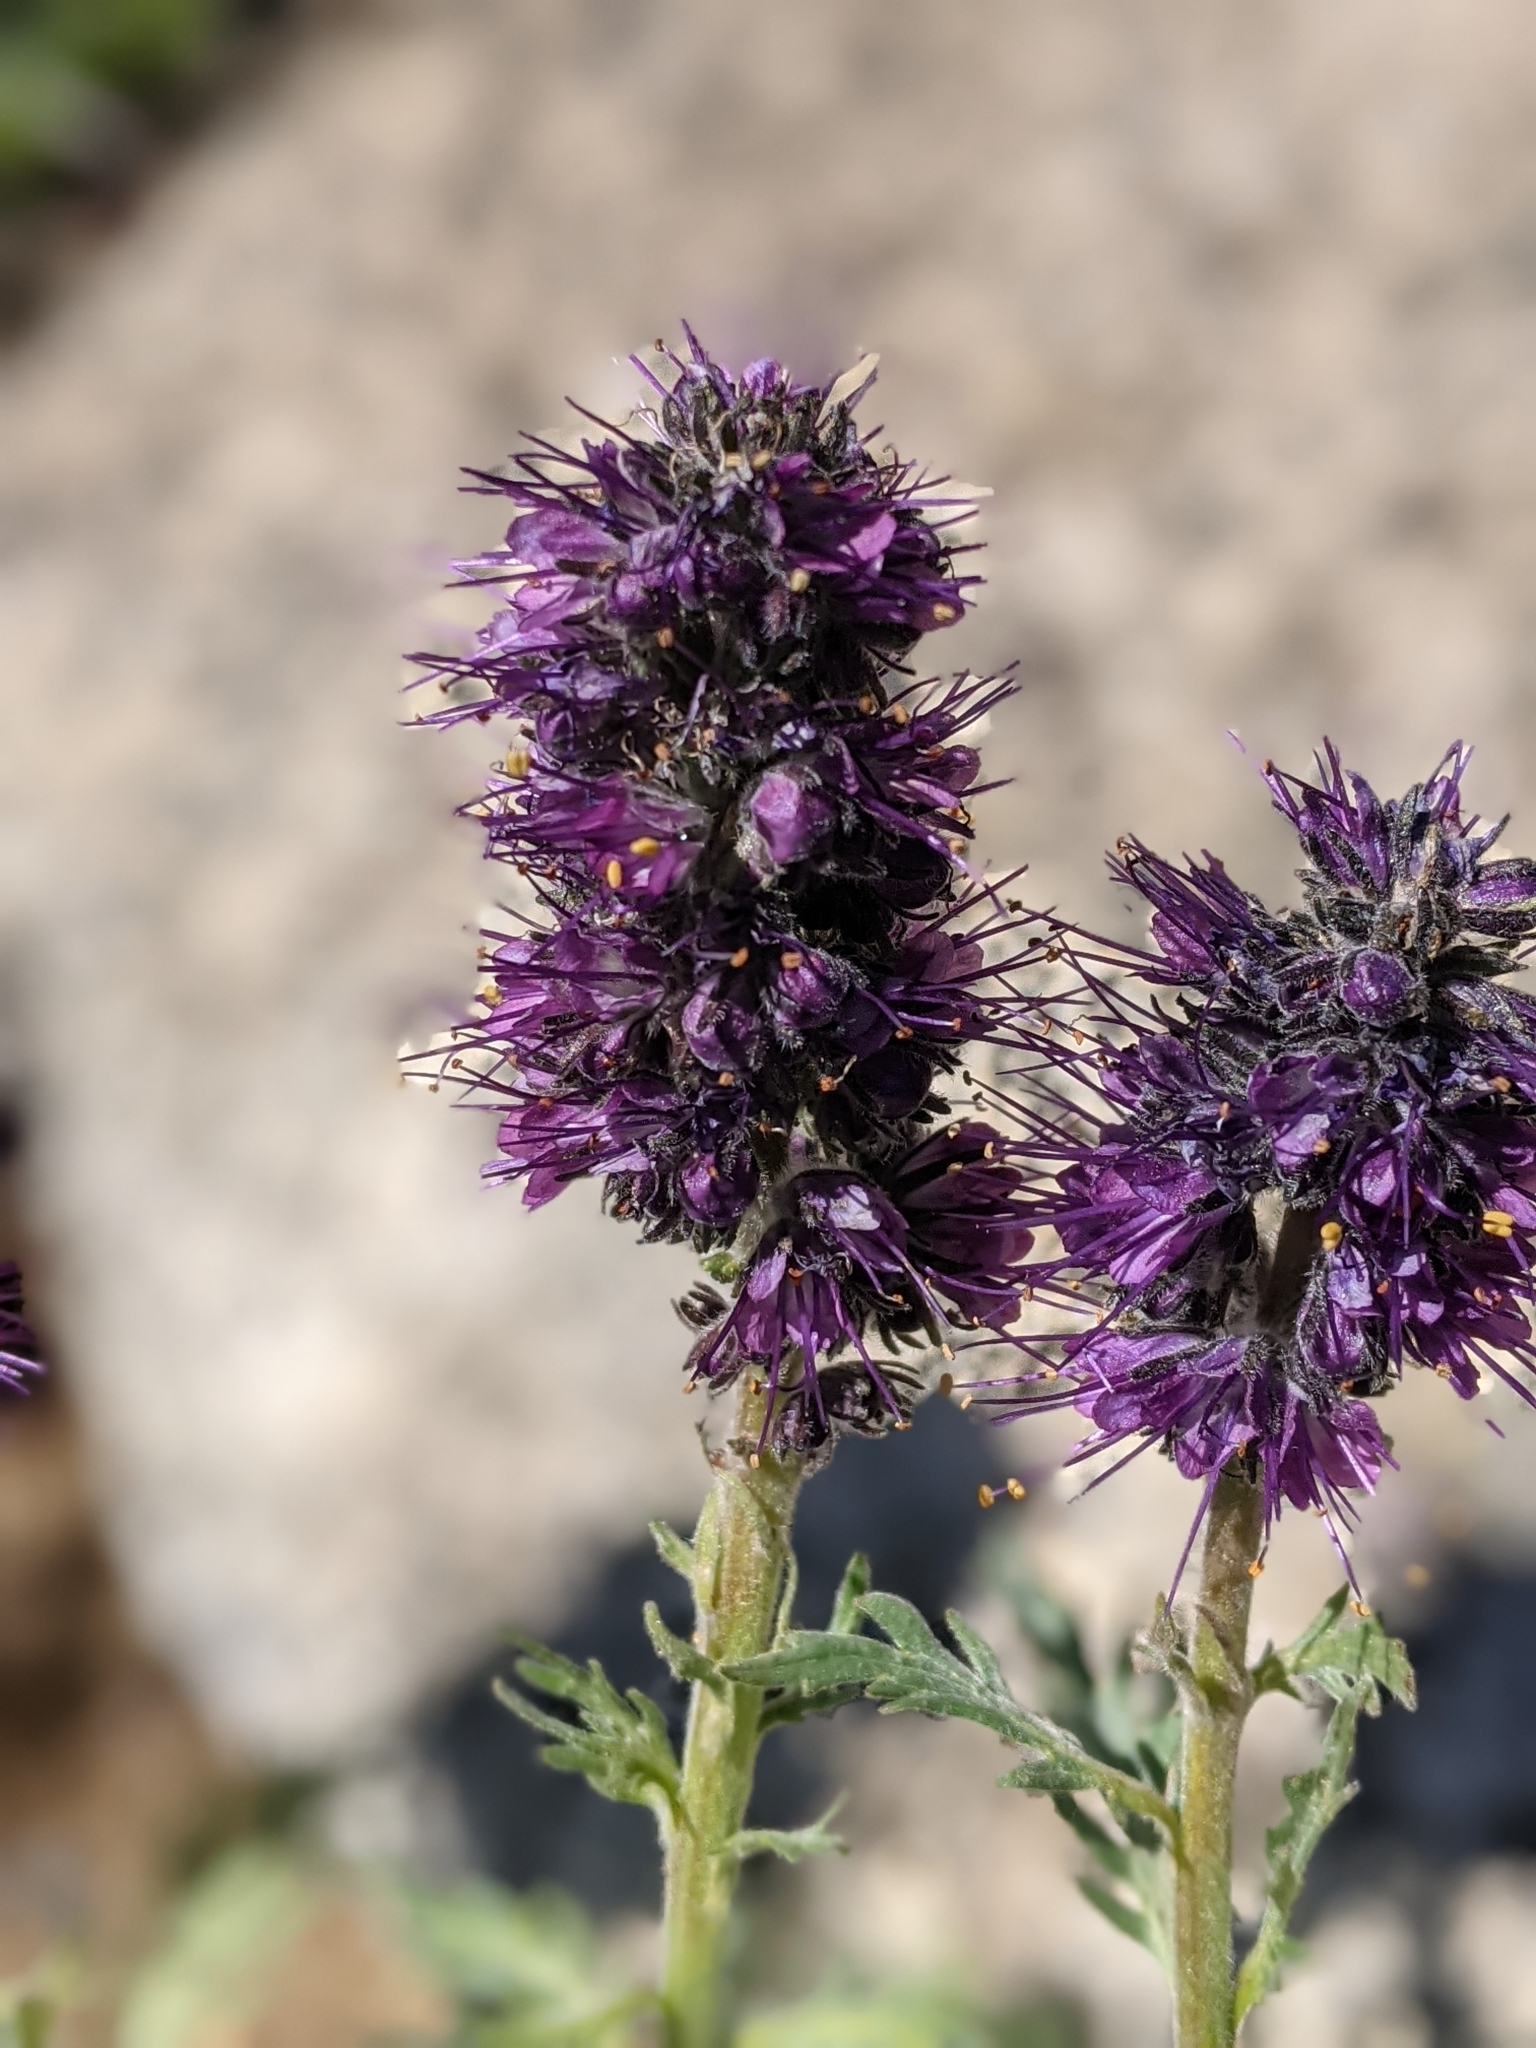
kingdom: Plantae
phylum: Tracheophyta
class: Magnoliopsida
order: Boraginales
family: Hydrophyllaceae
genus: Phacelia
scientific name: Phacelia sericea
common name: Silky phacelia
